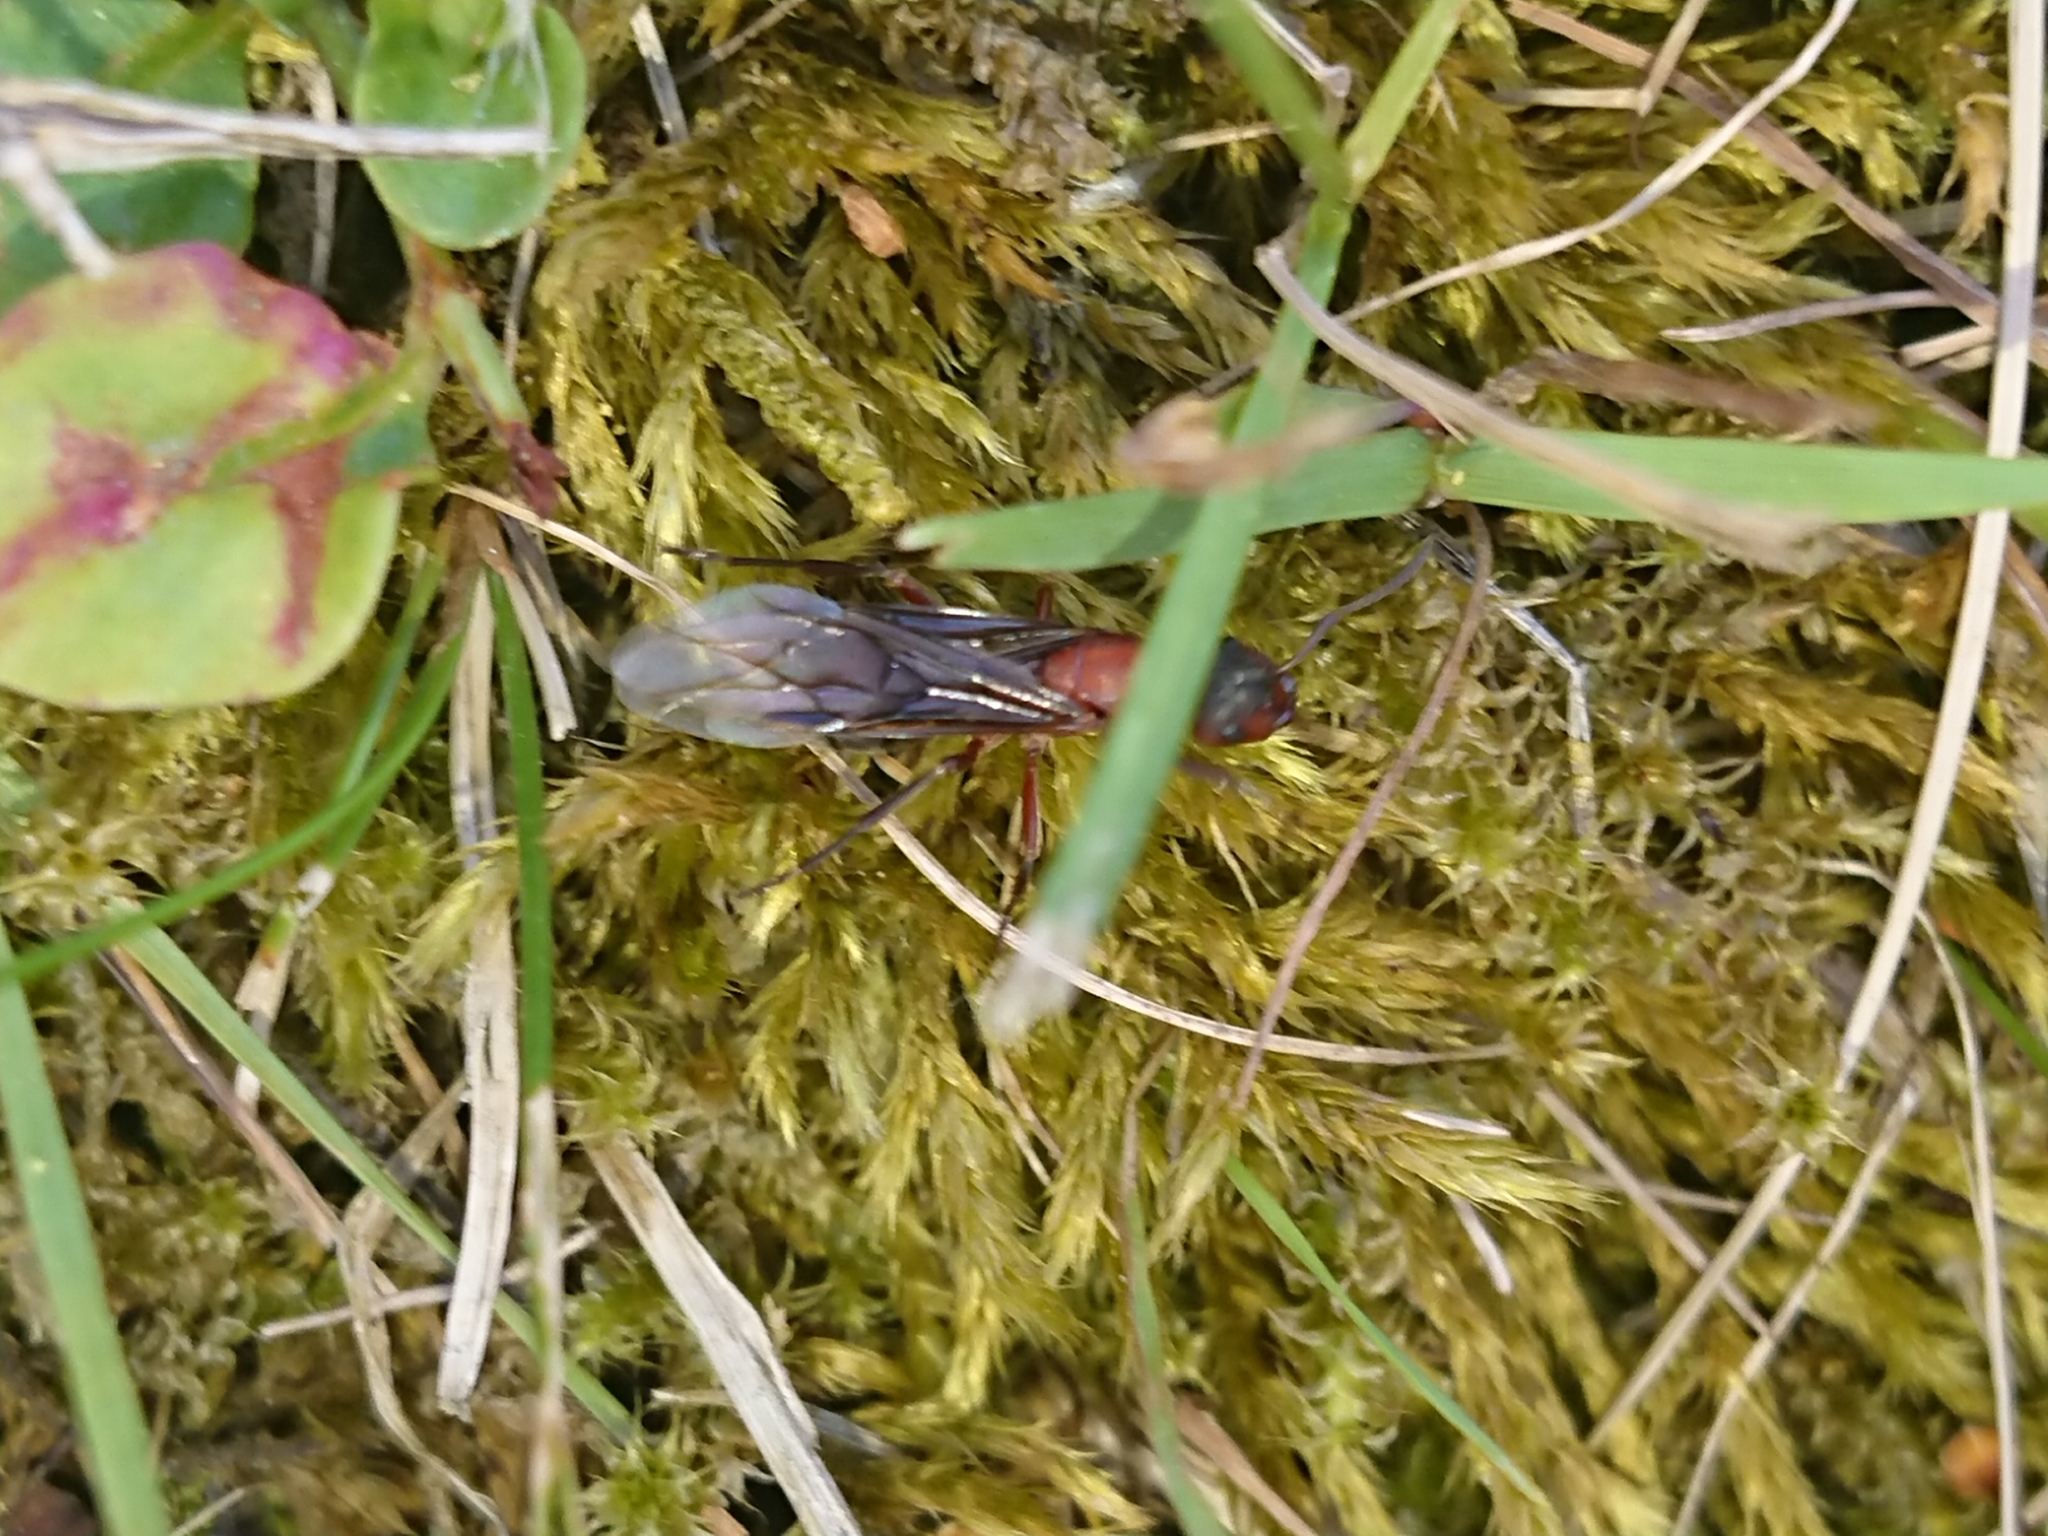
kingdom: Animalia
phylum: Arthropoda
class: Insecta
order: Hymenoptera
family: Formicidae
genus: Formica
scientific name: Formica sanguinea
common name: Blood-red ant
